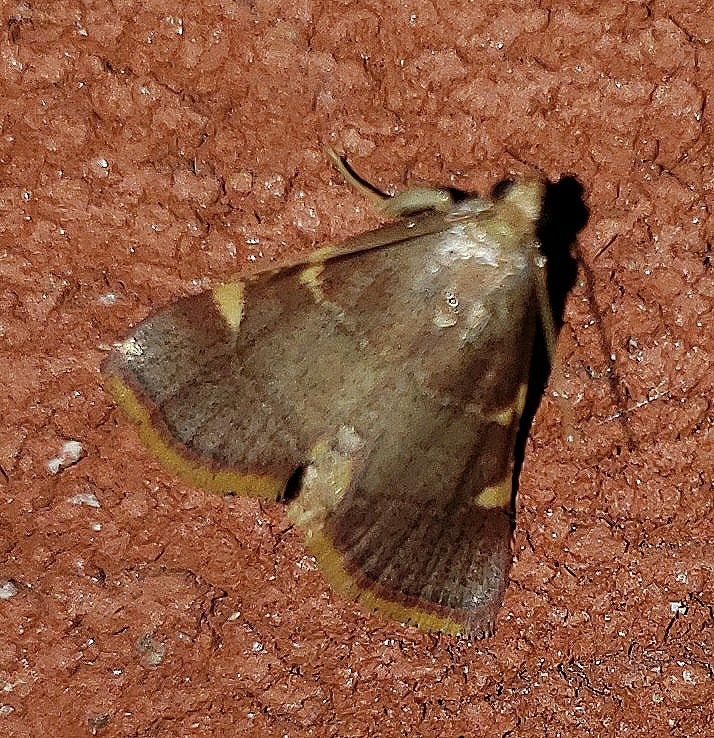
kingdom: Animalia
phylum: Arthropoda
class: Insecta
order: Lepidoptera
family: Pyralidae
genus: Hypsopygia
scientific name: Hypsopygia olinalis
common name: Yellow-fringed dolichomia moth
